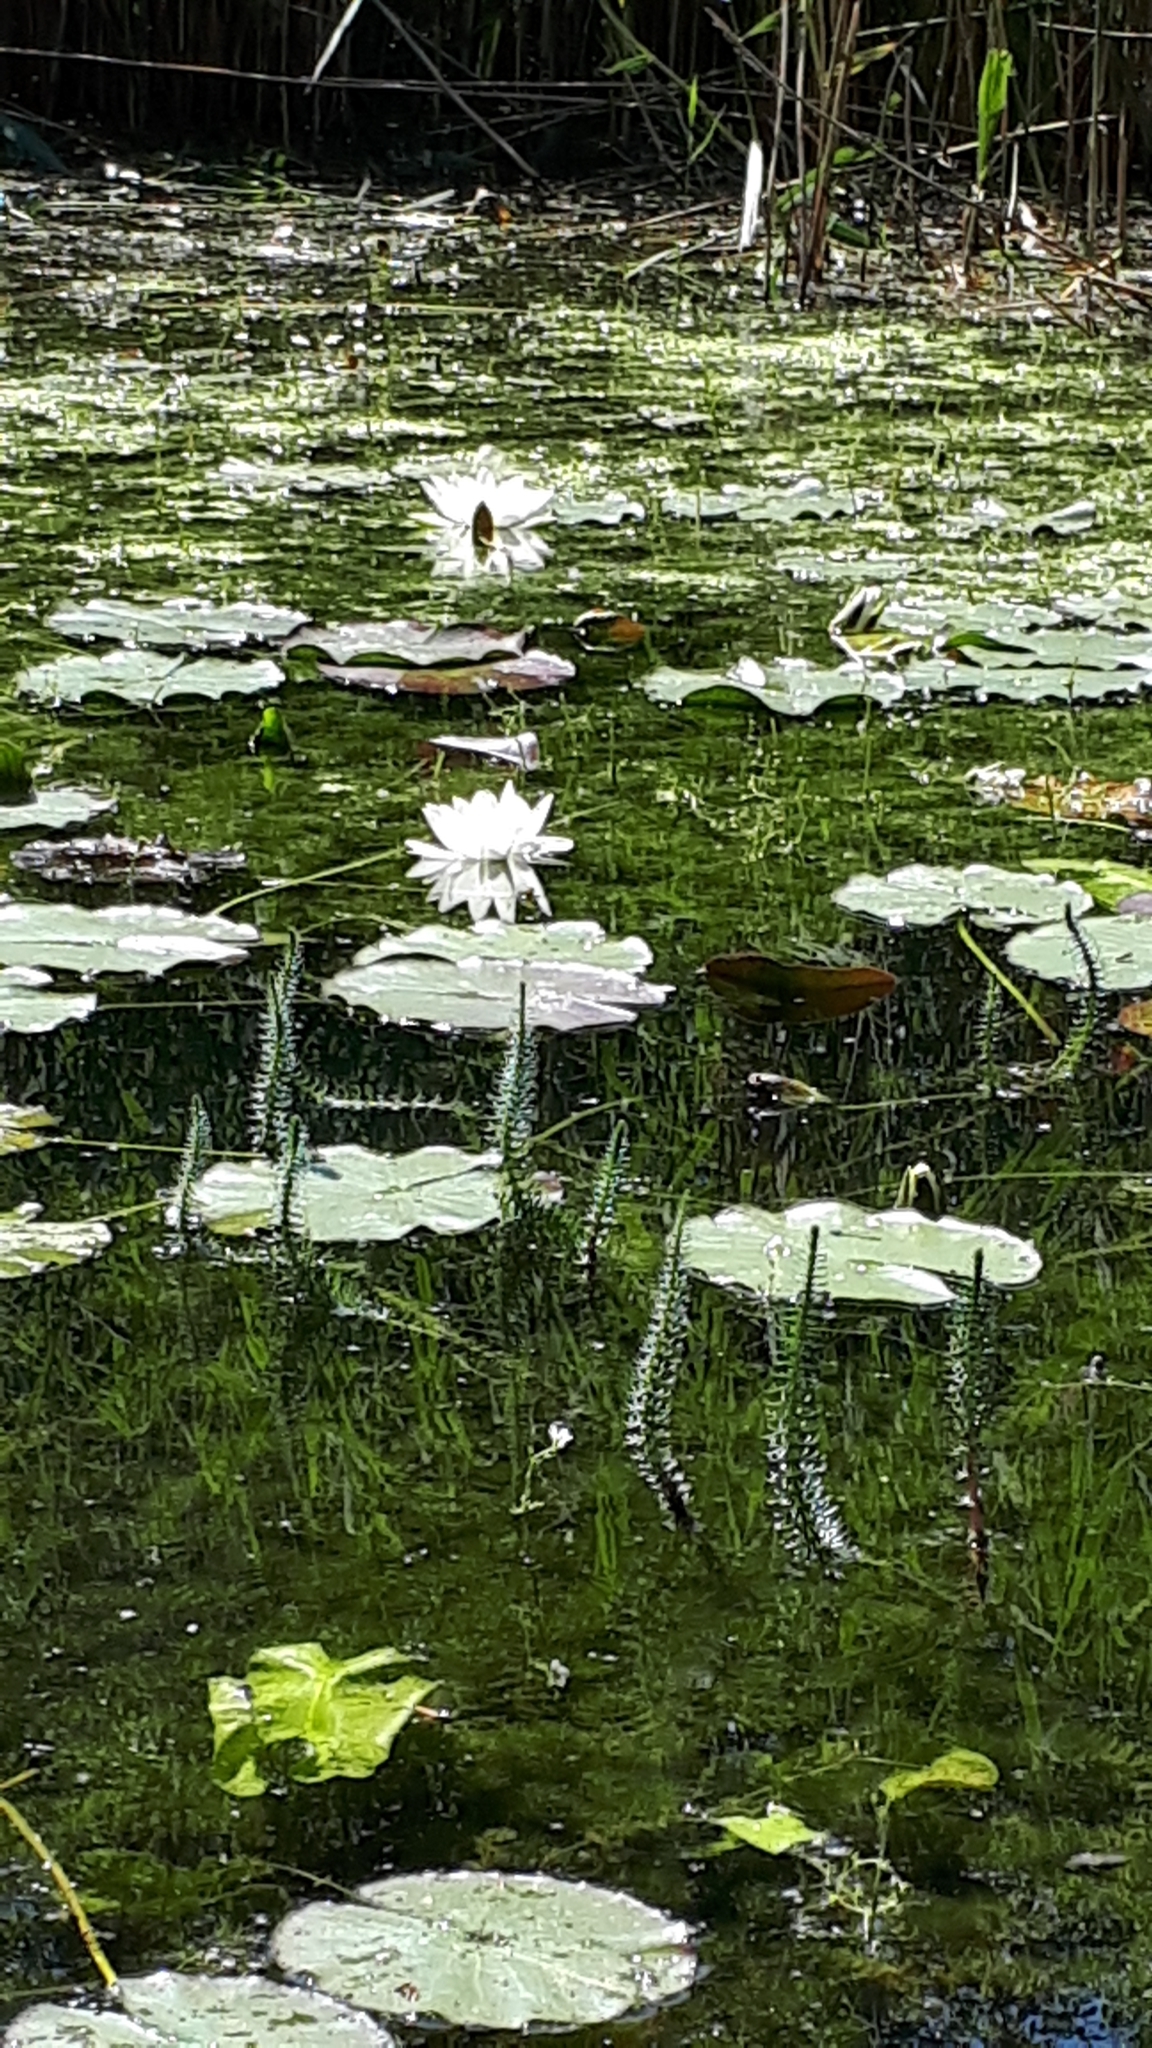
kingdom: Plantae
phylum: Tracheophyta
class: Magnoliopsida
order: Nymphaeales
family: Nymphaeaceae
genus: Nymphaea
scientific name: Nymphaea alba
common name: White water-lily
